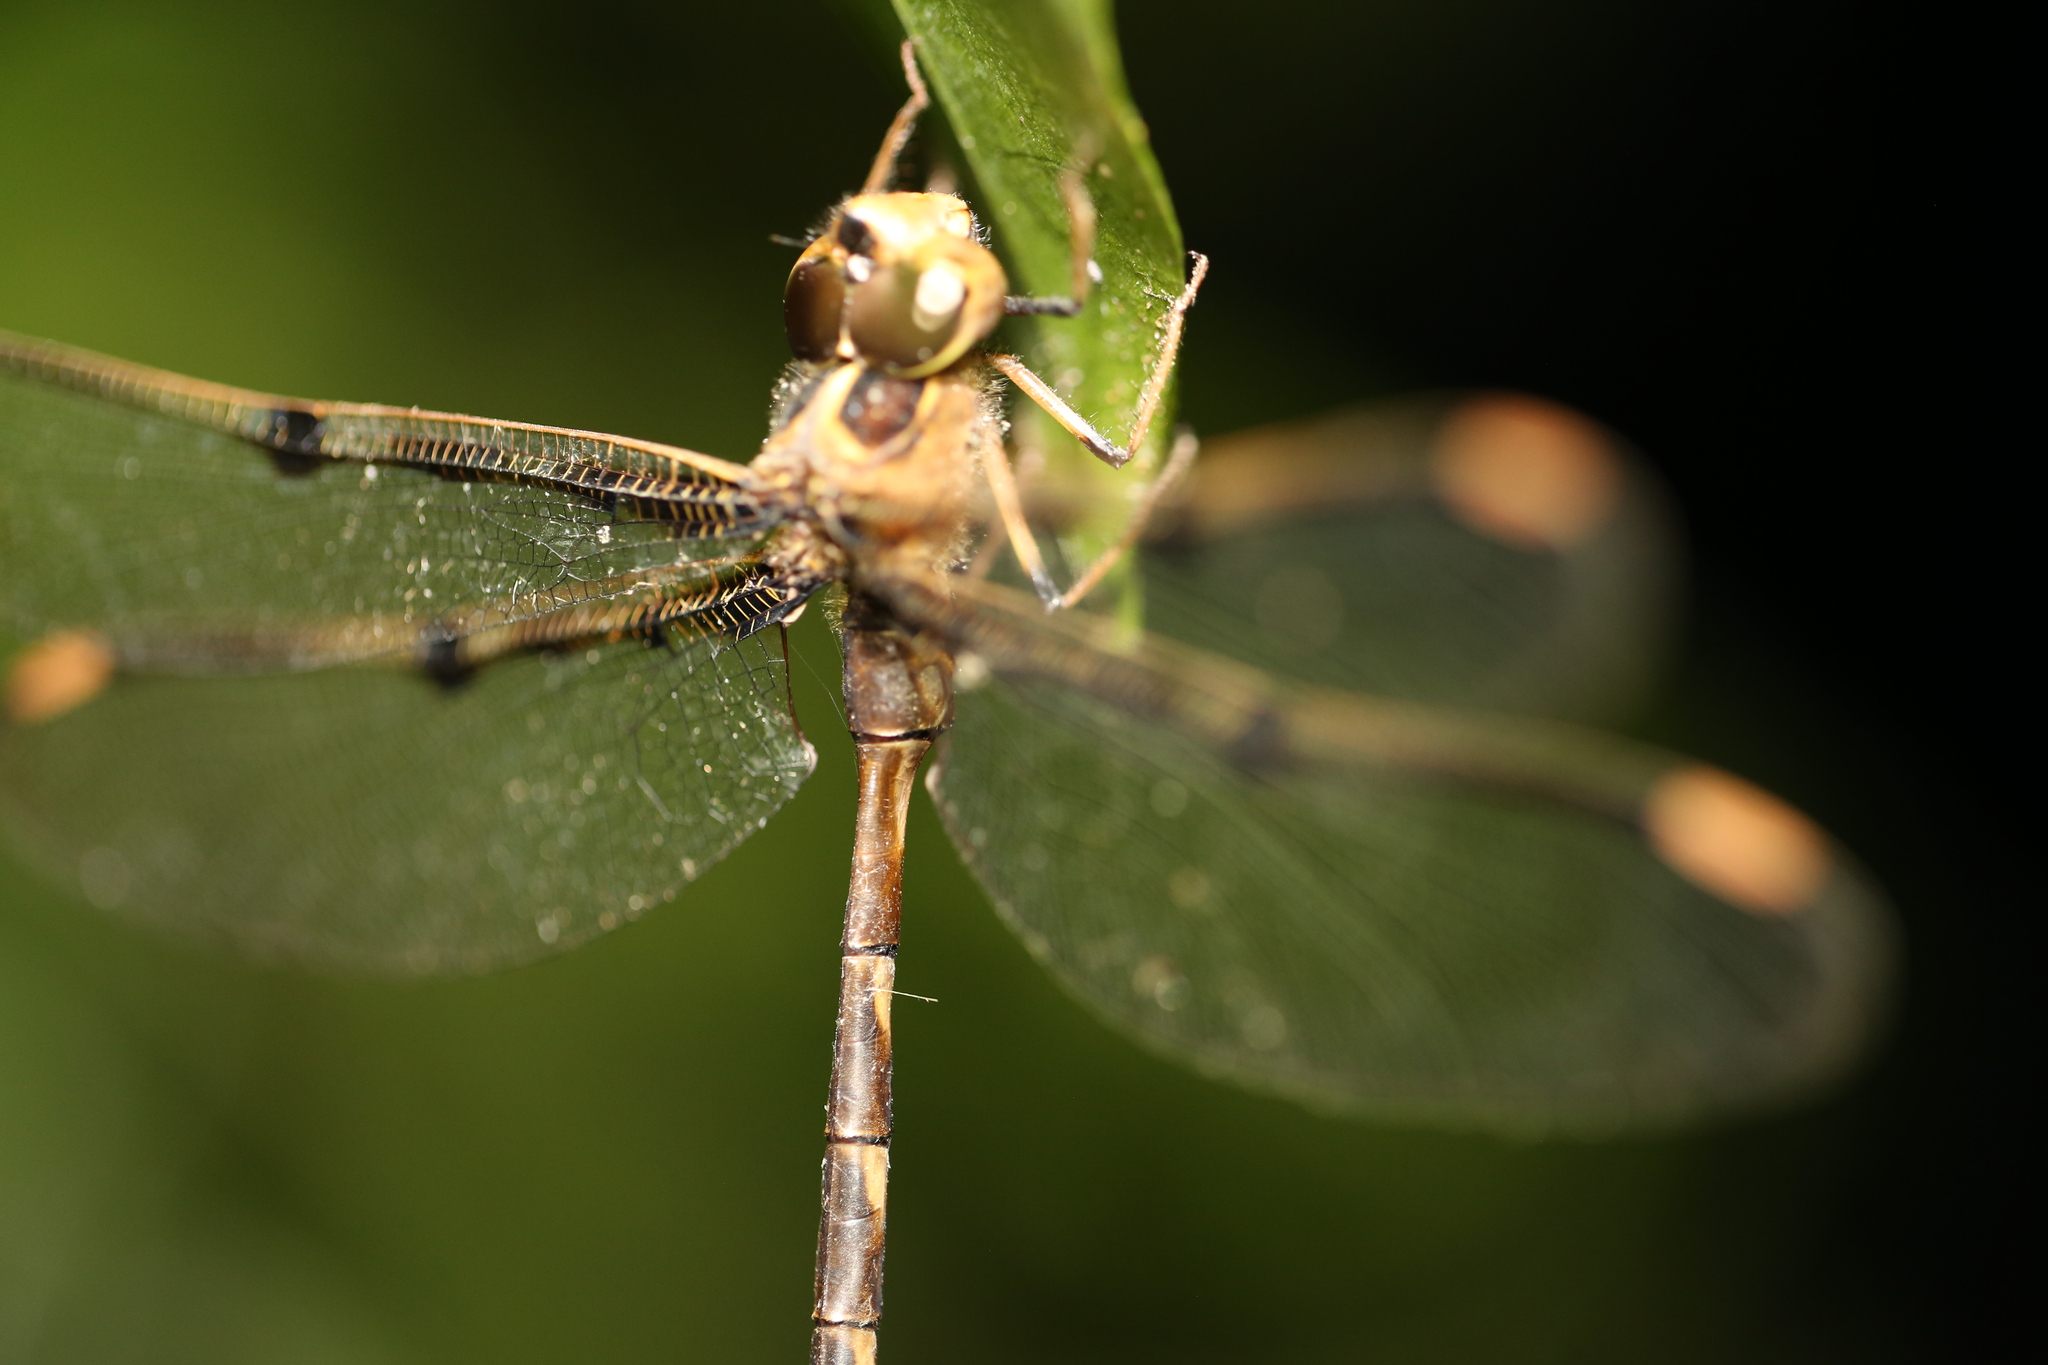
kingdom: Animalia
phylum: Arthropoda
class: Insecta
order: Odonata
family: Aeshnidae
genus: Telephlebia
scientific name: Telephlebia cyclops
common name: Northern evening darner
